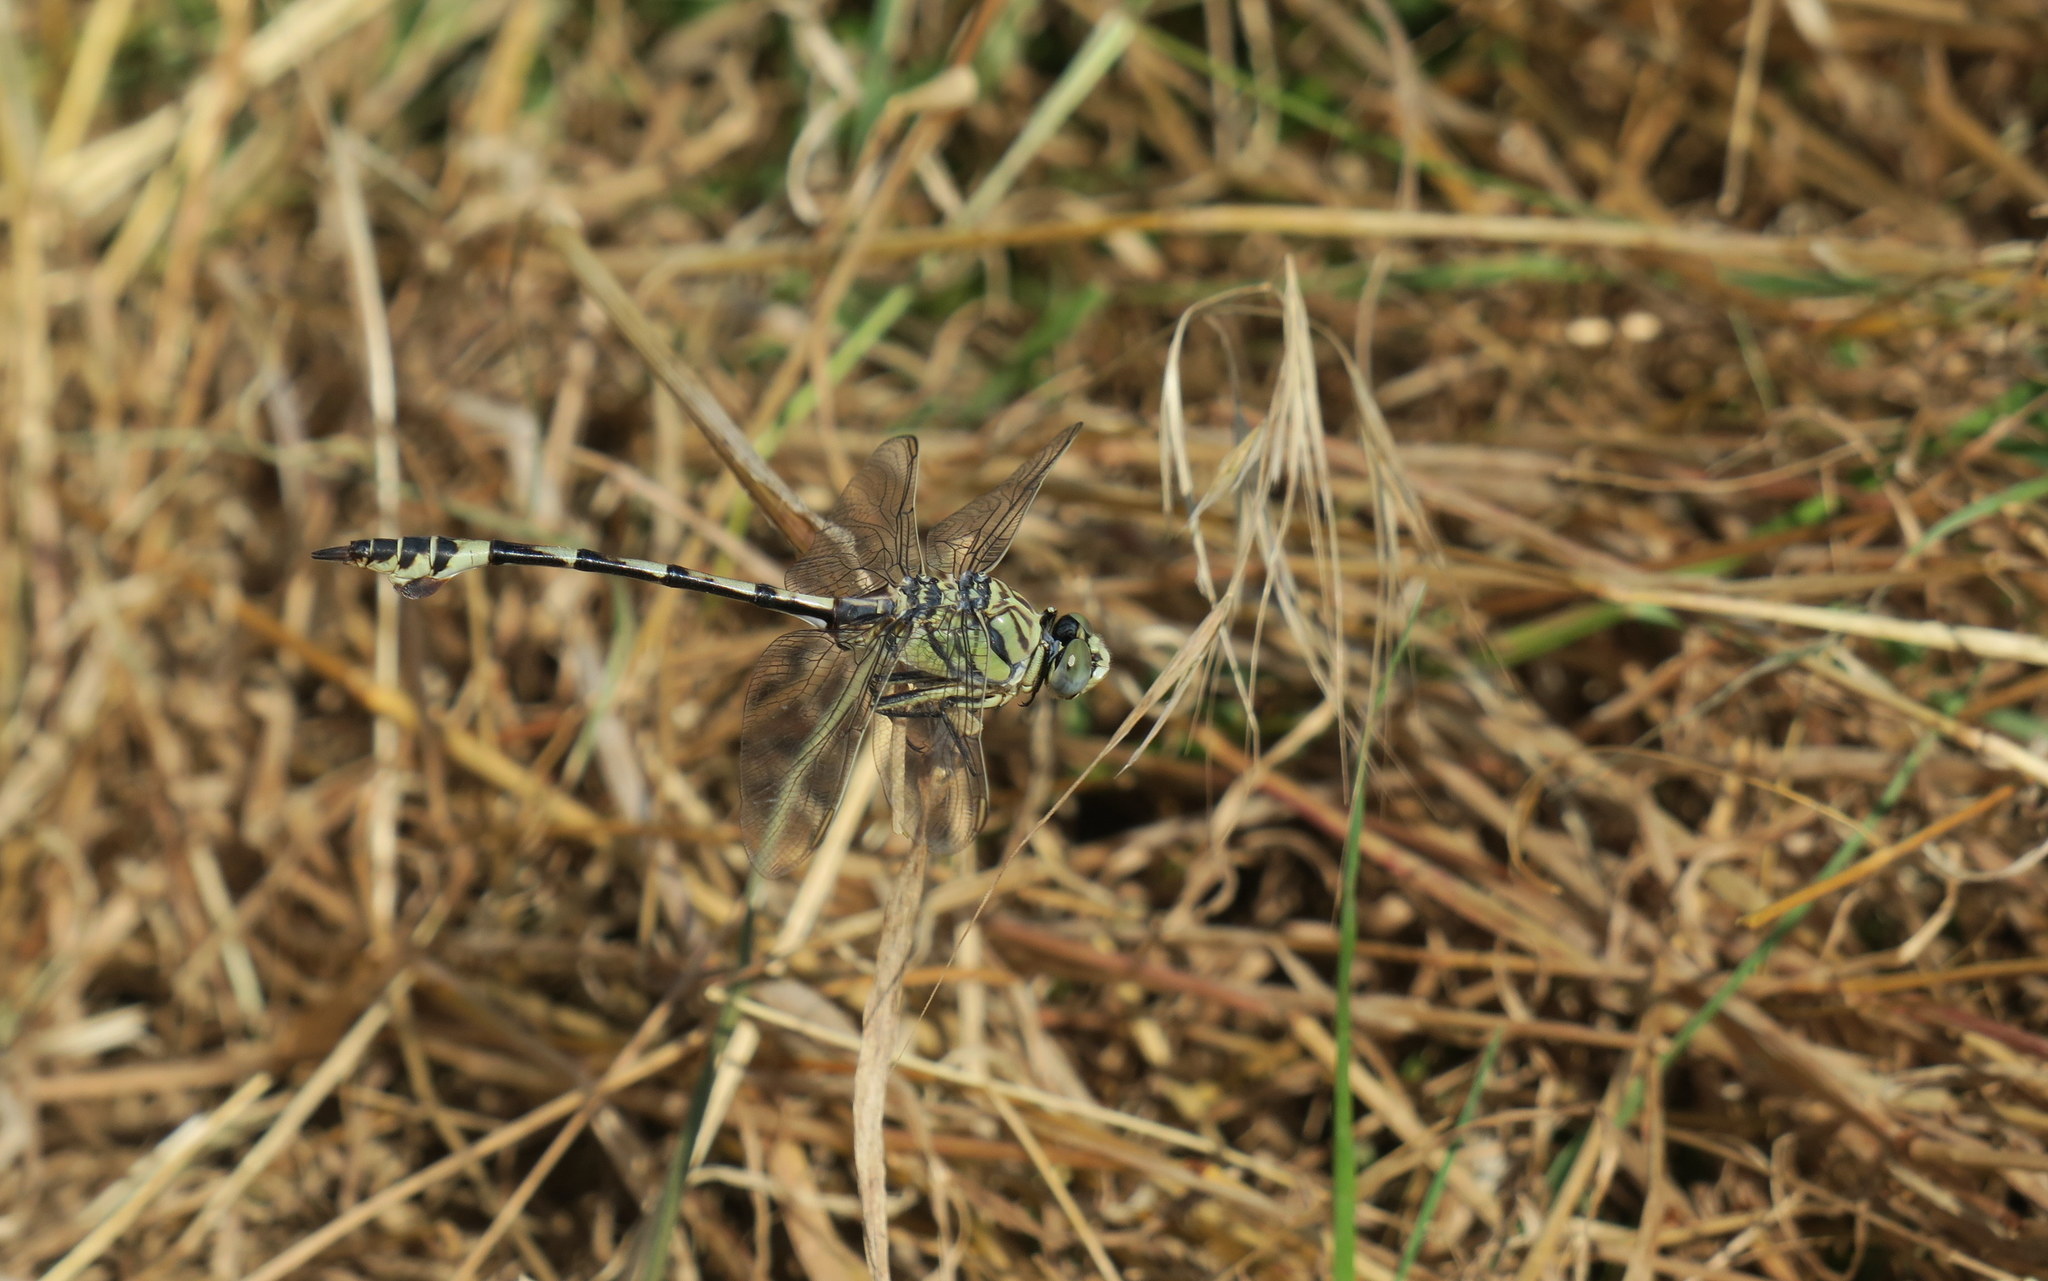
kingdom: Animalia
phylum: Arthropoda
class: Insecta
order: Odonata
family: Gomphidae
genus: Lindenia
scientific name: Lindenia tetraphylla
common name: Bladetail
